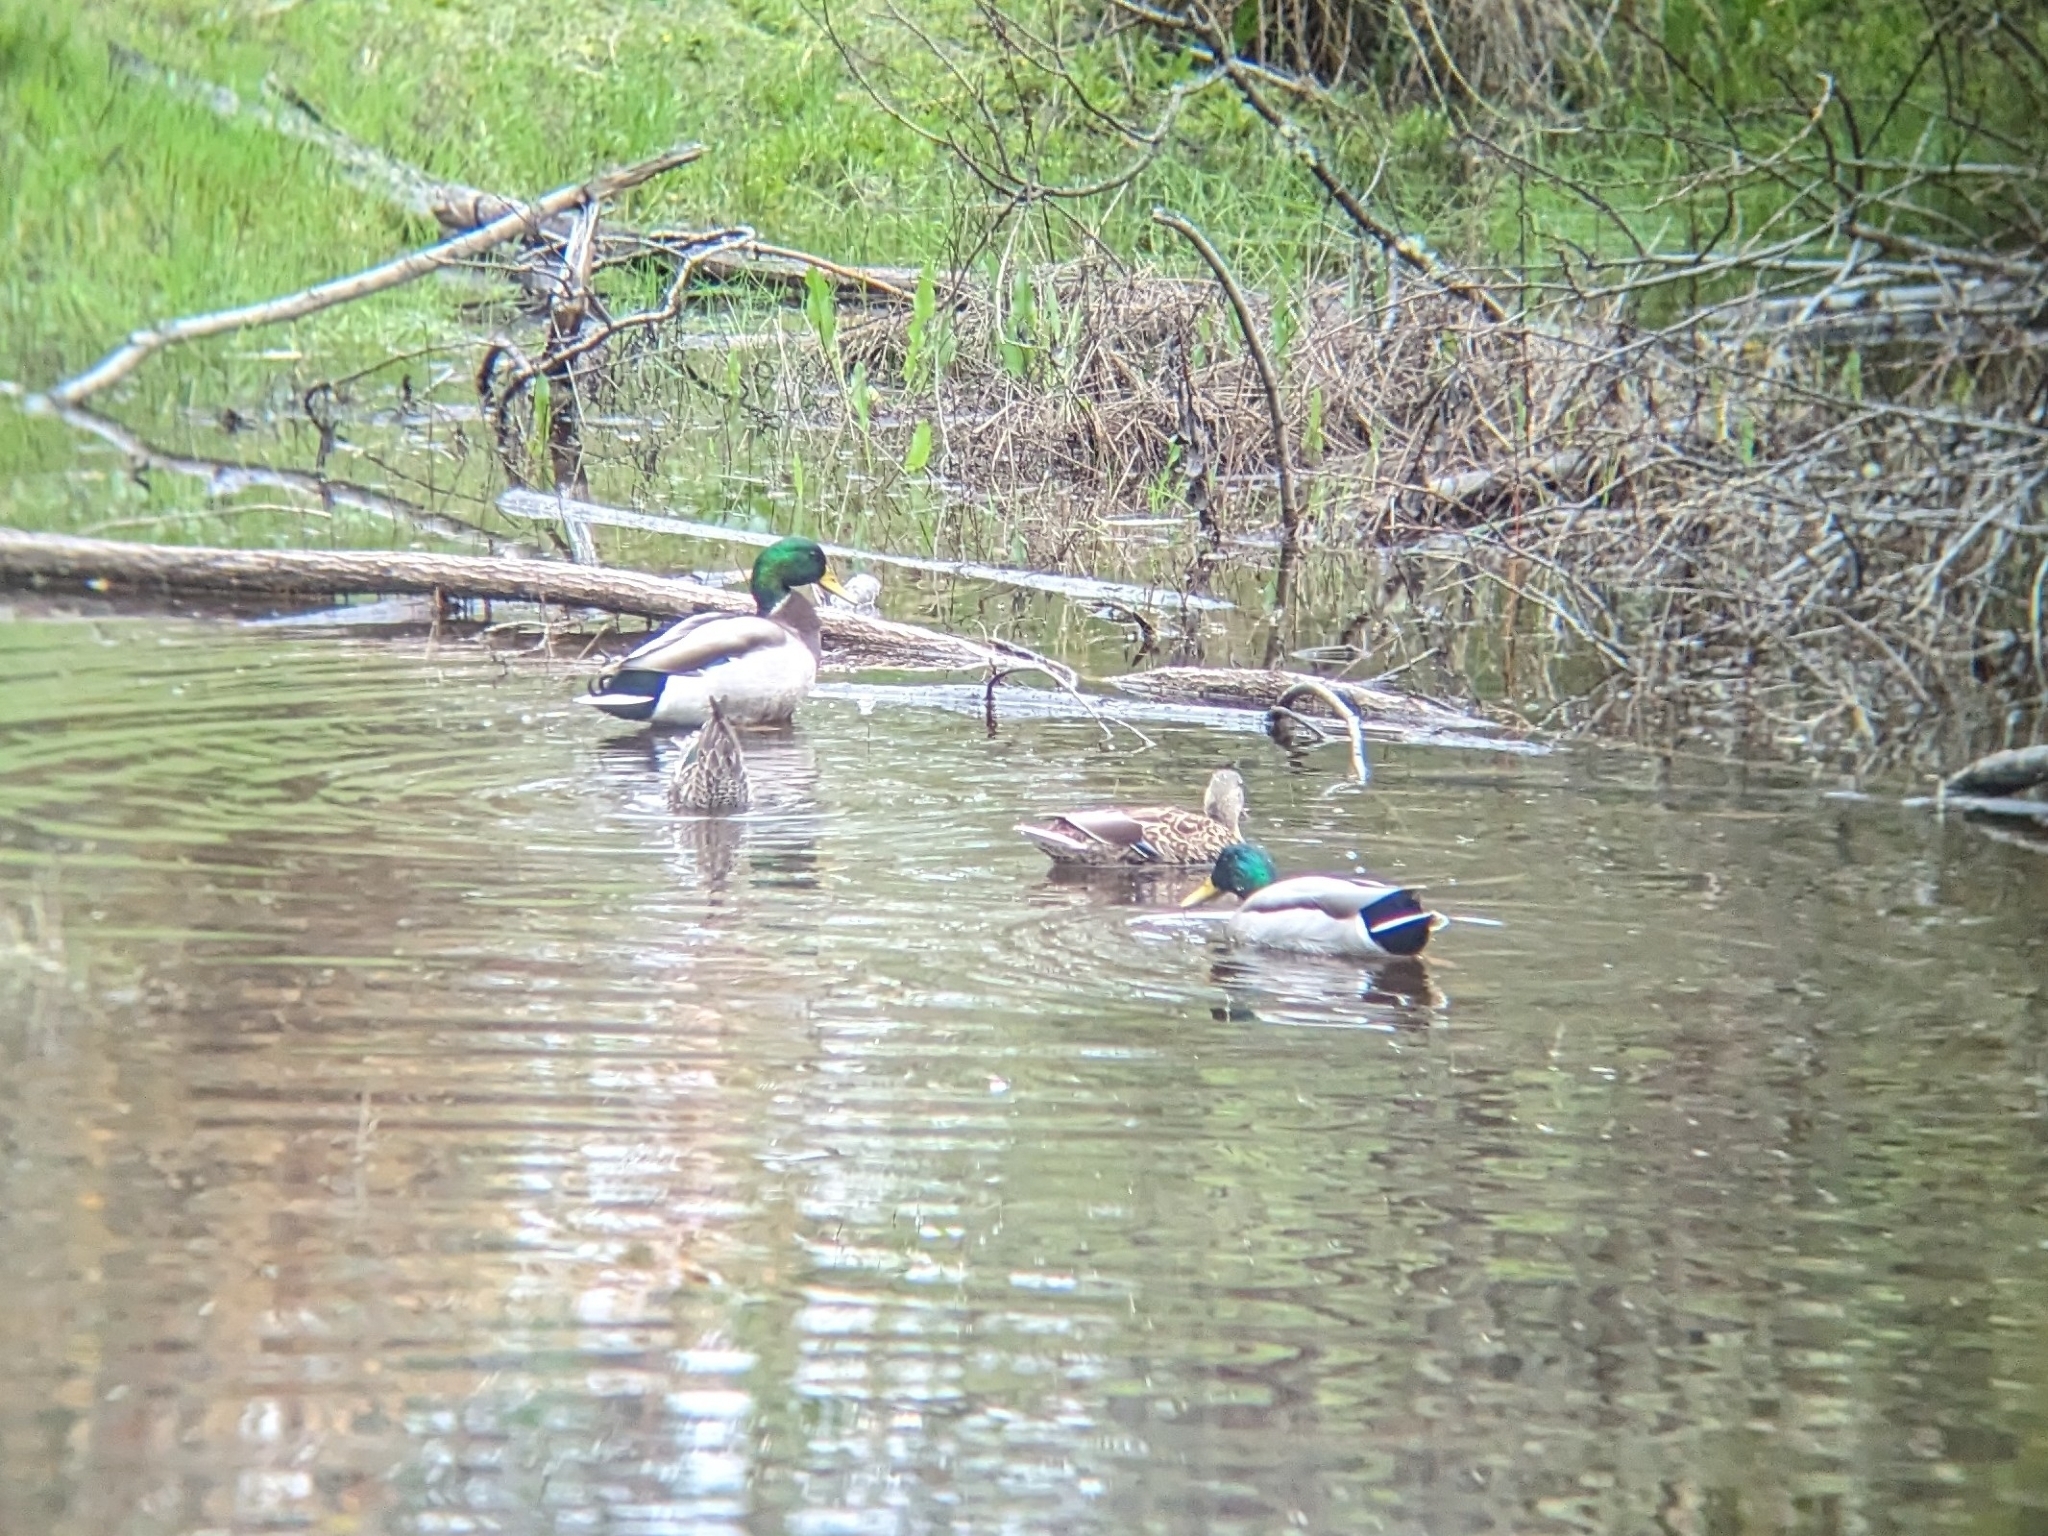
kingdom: Animalia
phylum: Chordata
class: Aves
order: Anseriformes
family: Anatidae
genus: Anas
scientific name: Anas platyrhynchos
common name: Mallard
